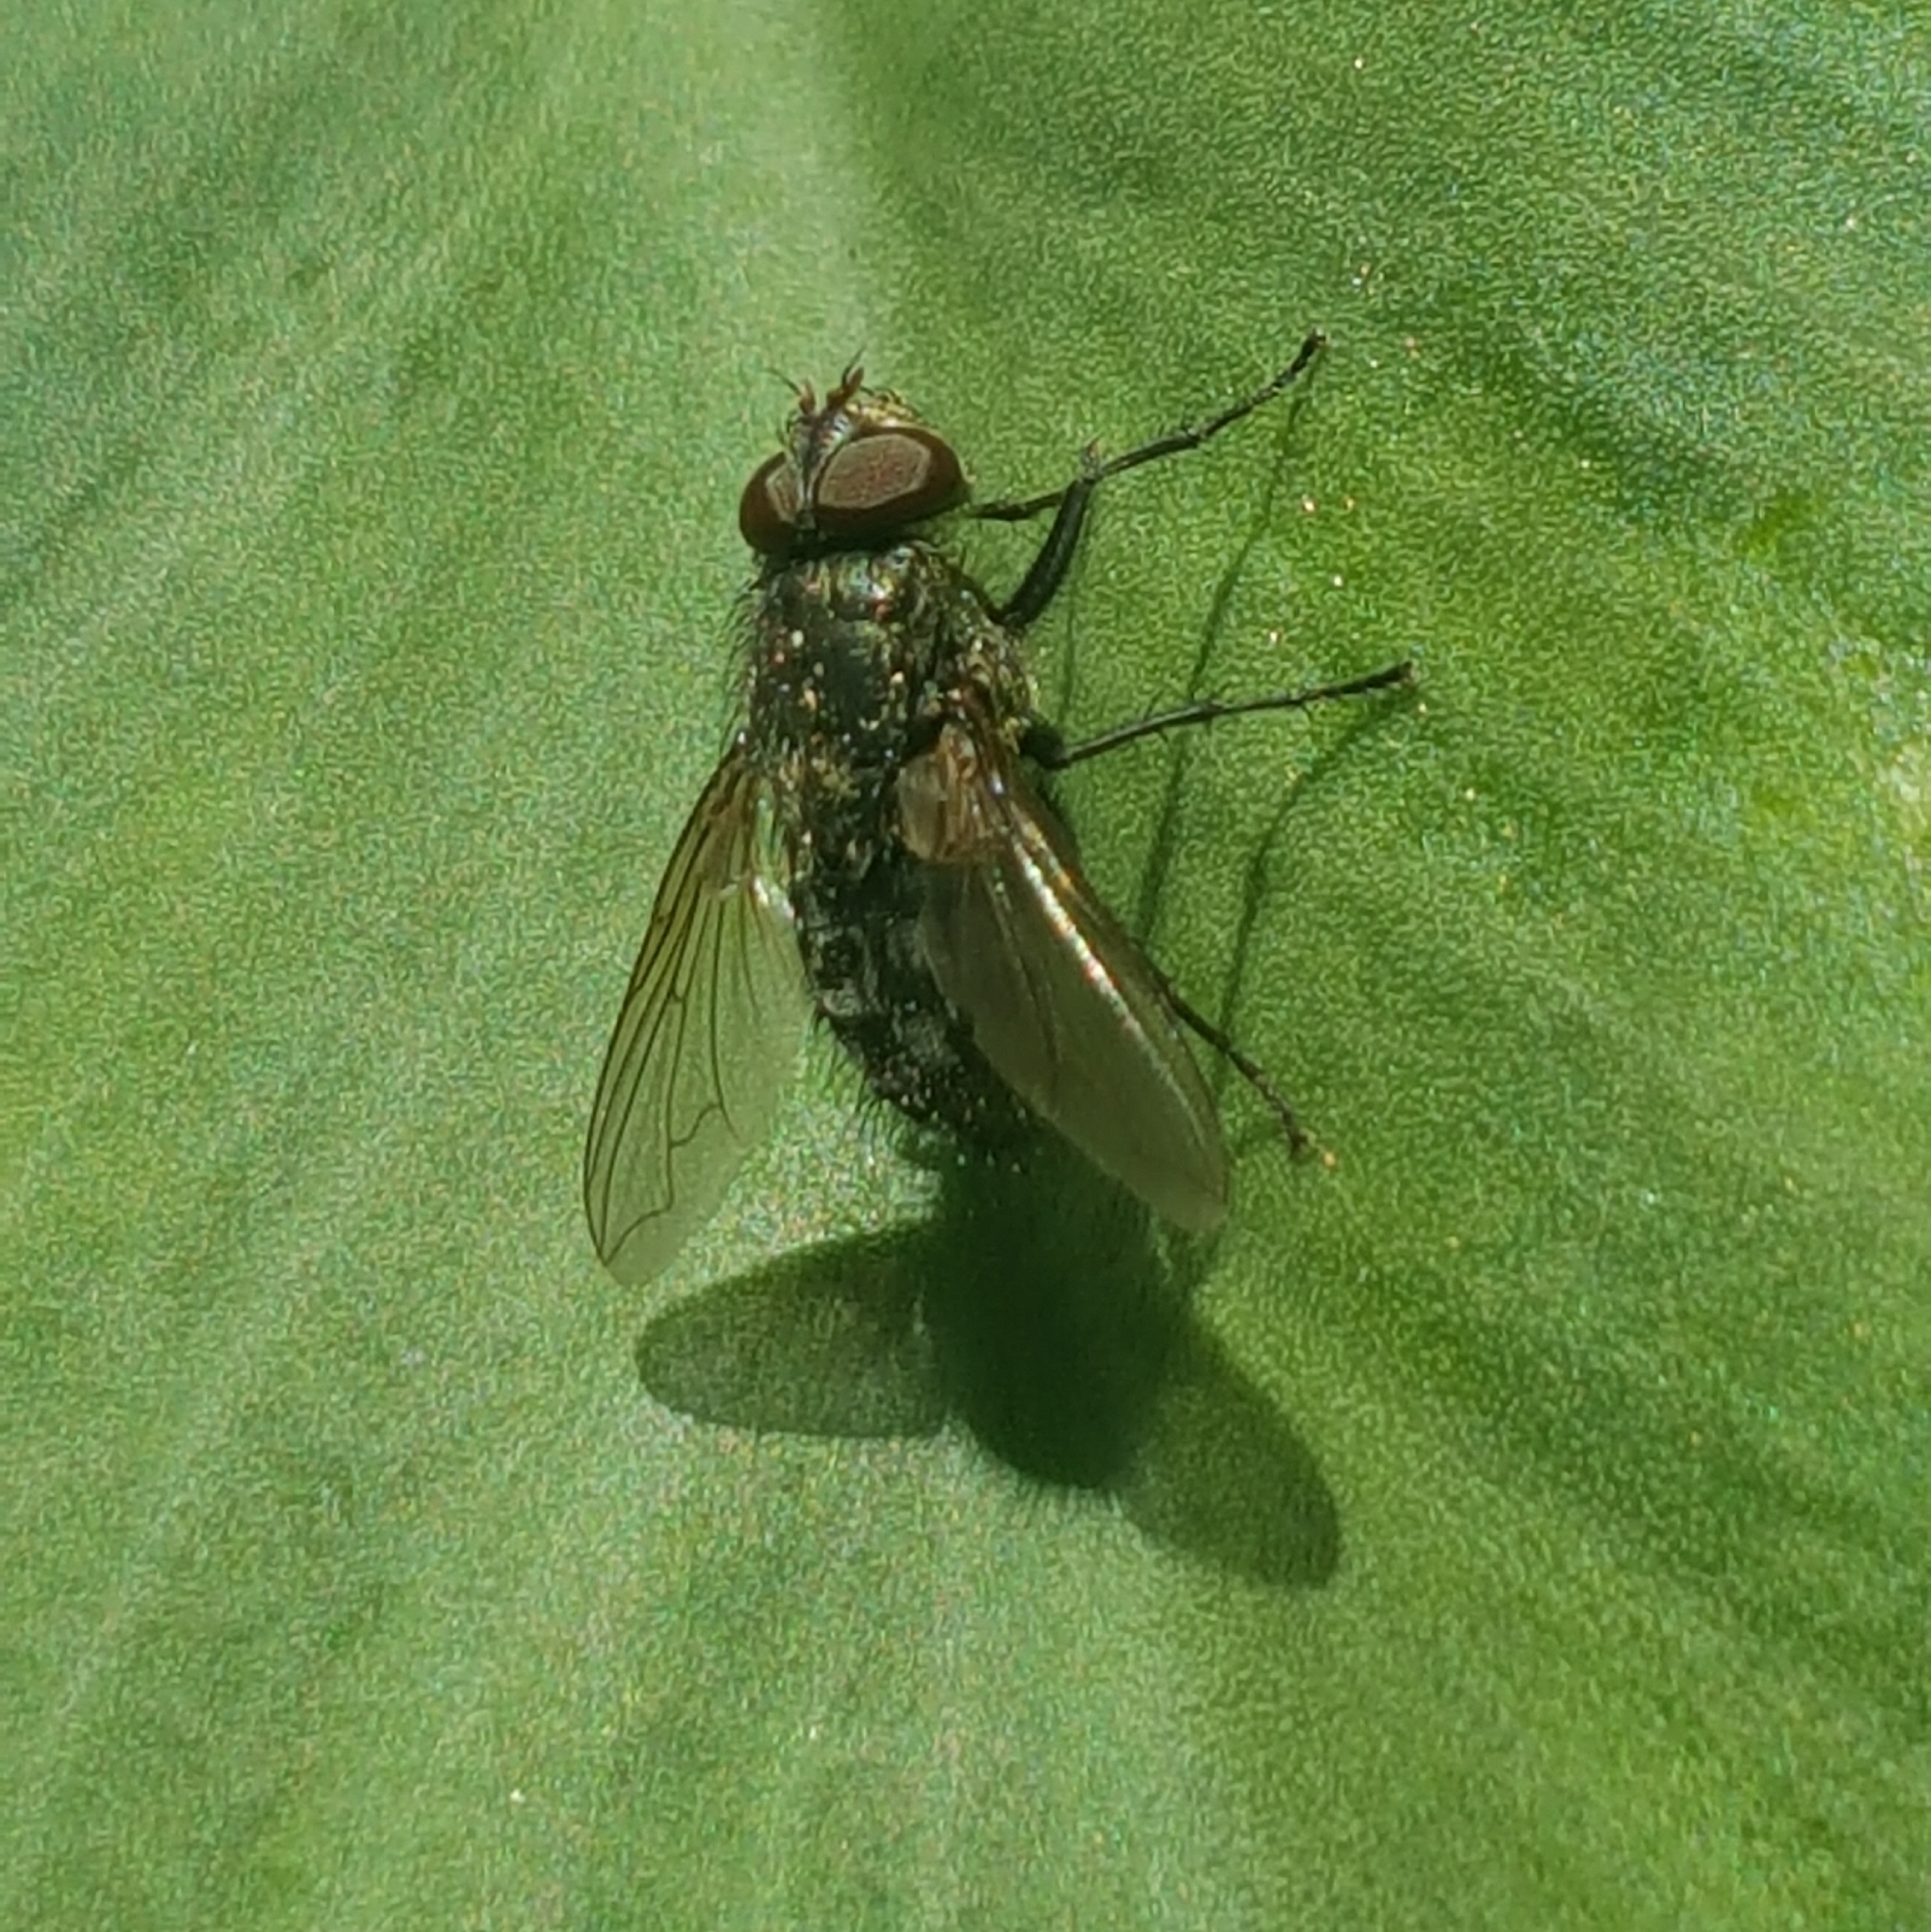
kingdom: Animalia
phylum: Arthropoda
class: Insecta
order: Diptera
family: Polleniidae
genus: Pollenia
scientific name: Pollenia
